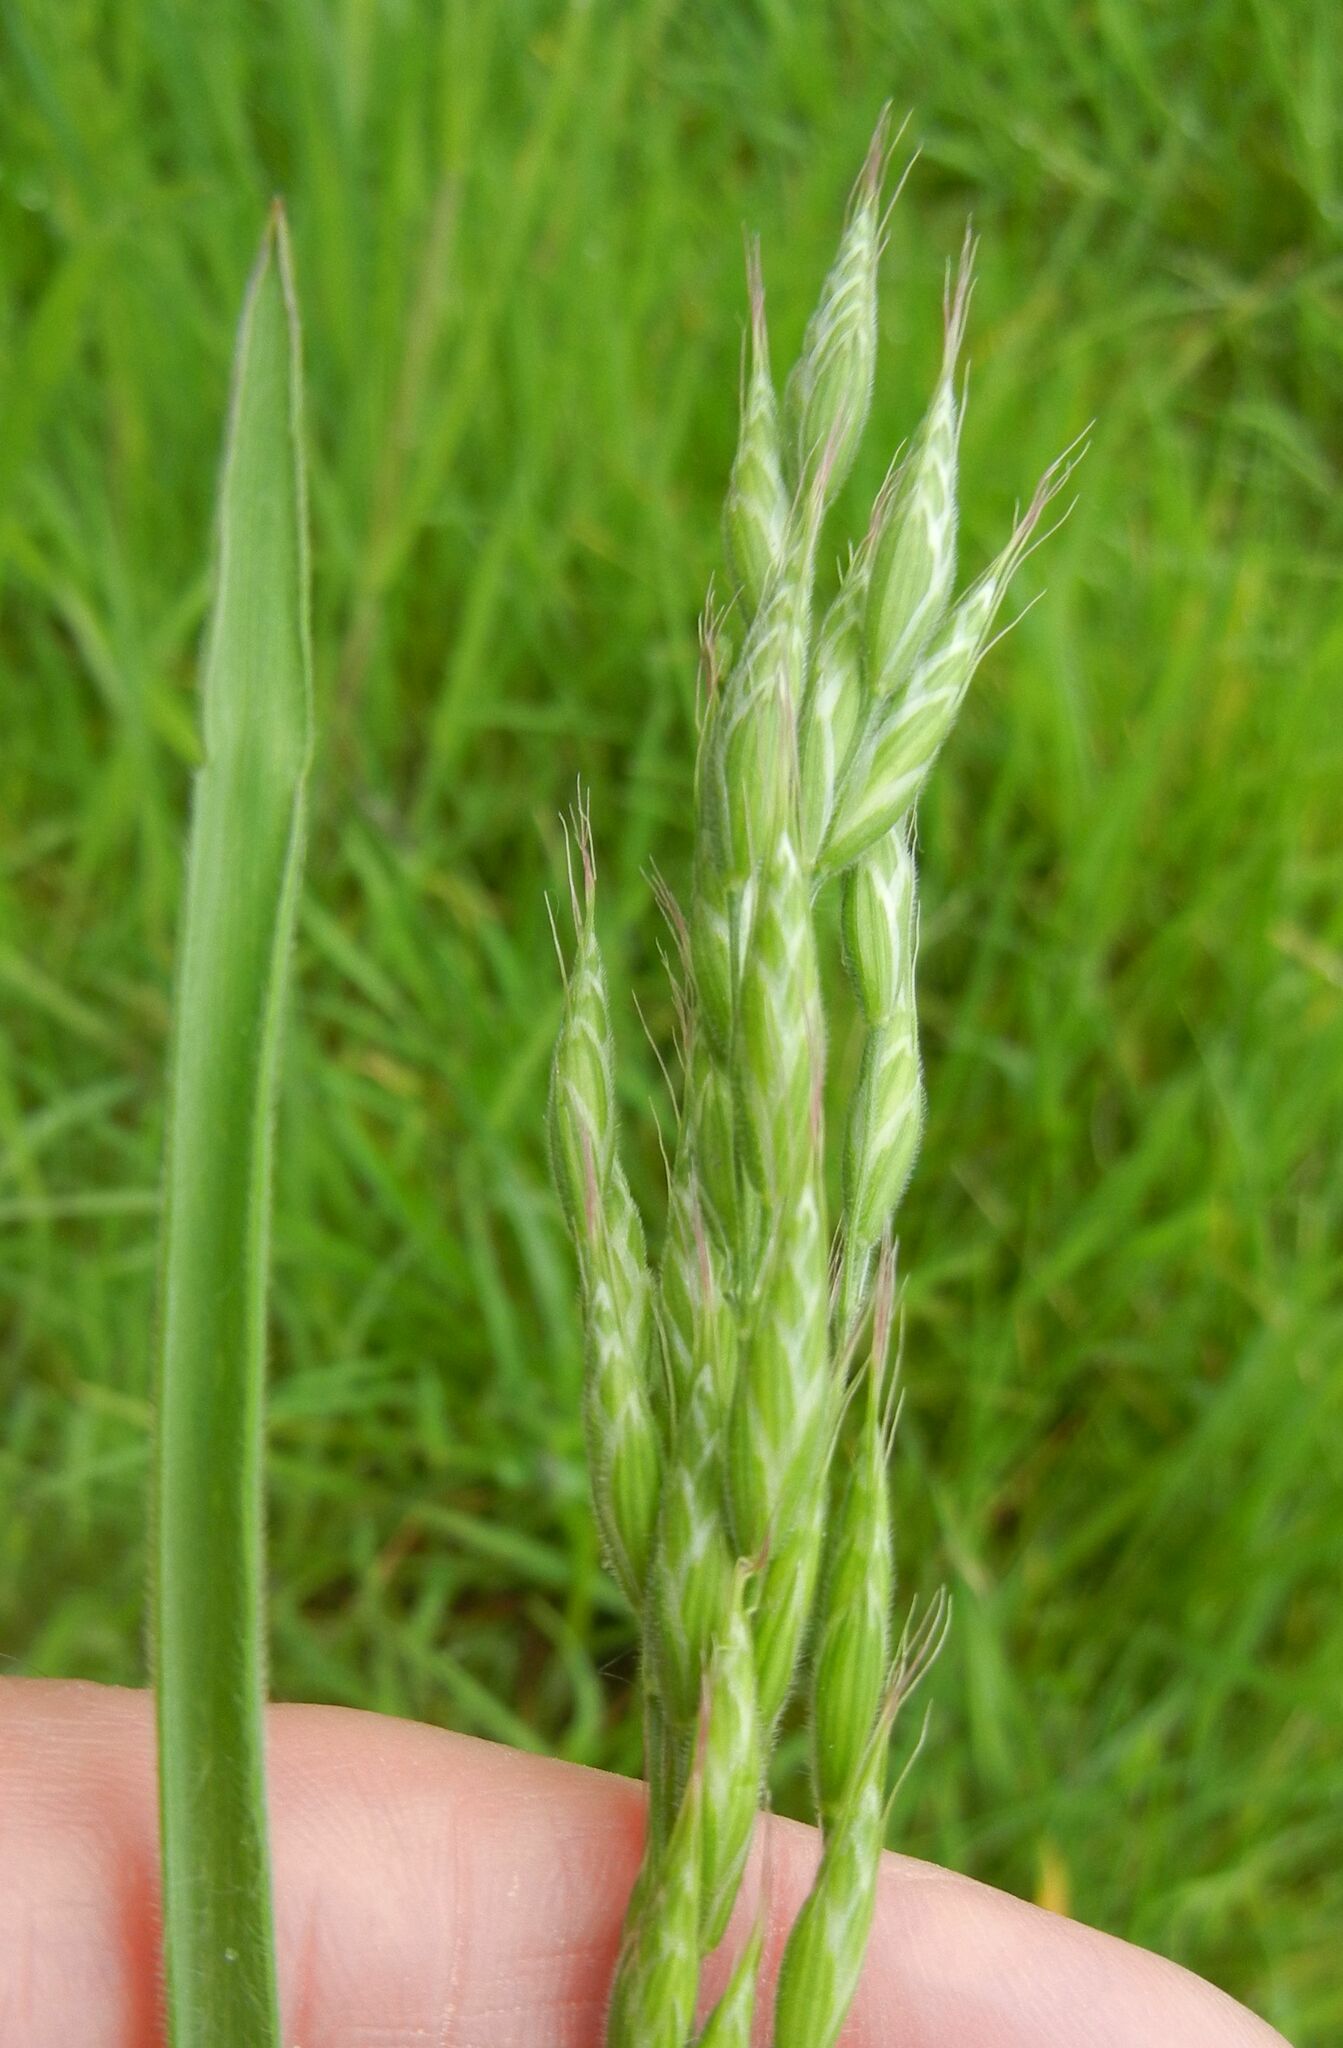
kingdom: Plantae
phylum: Tracheophyta
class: Liliopsida
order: Poales
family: Poaceae
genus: Bromus
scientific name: Bromus hordeaceus
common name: Soft brome
